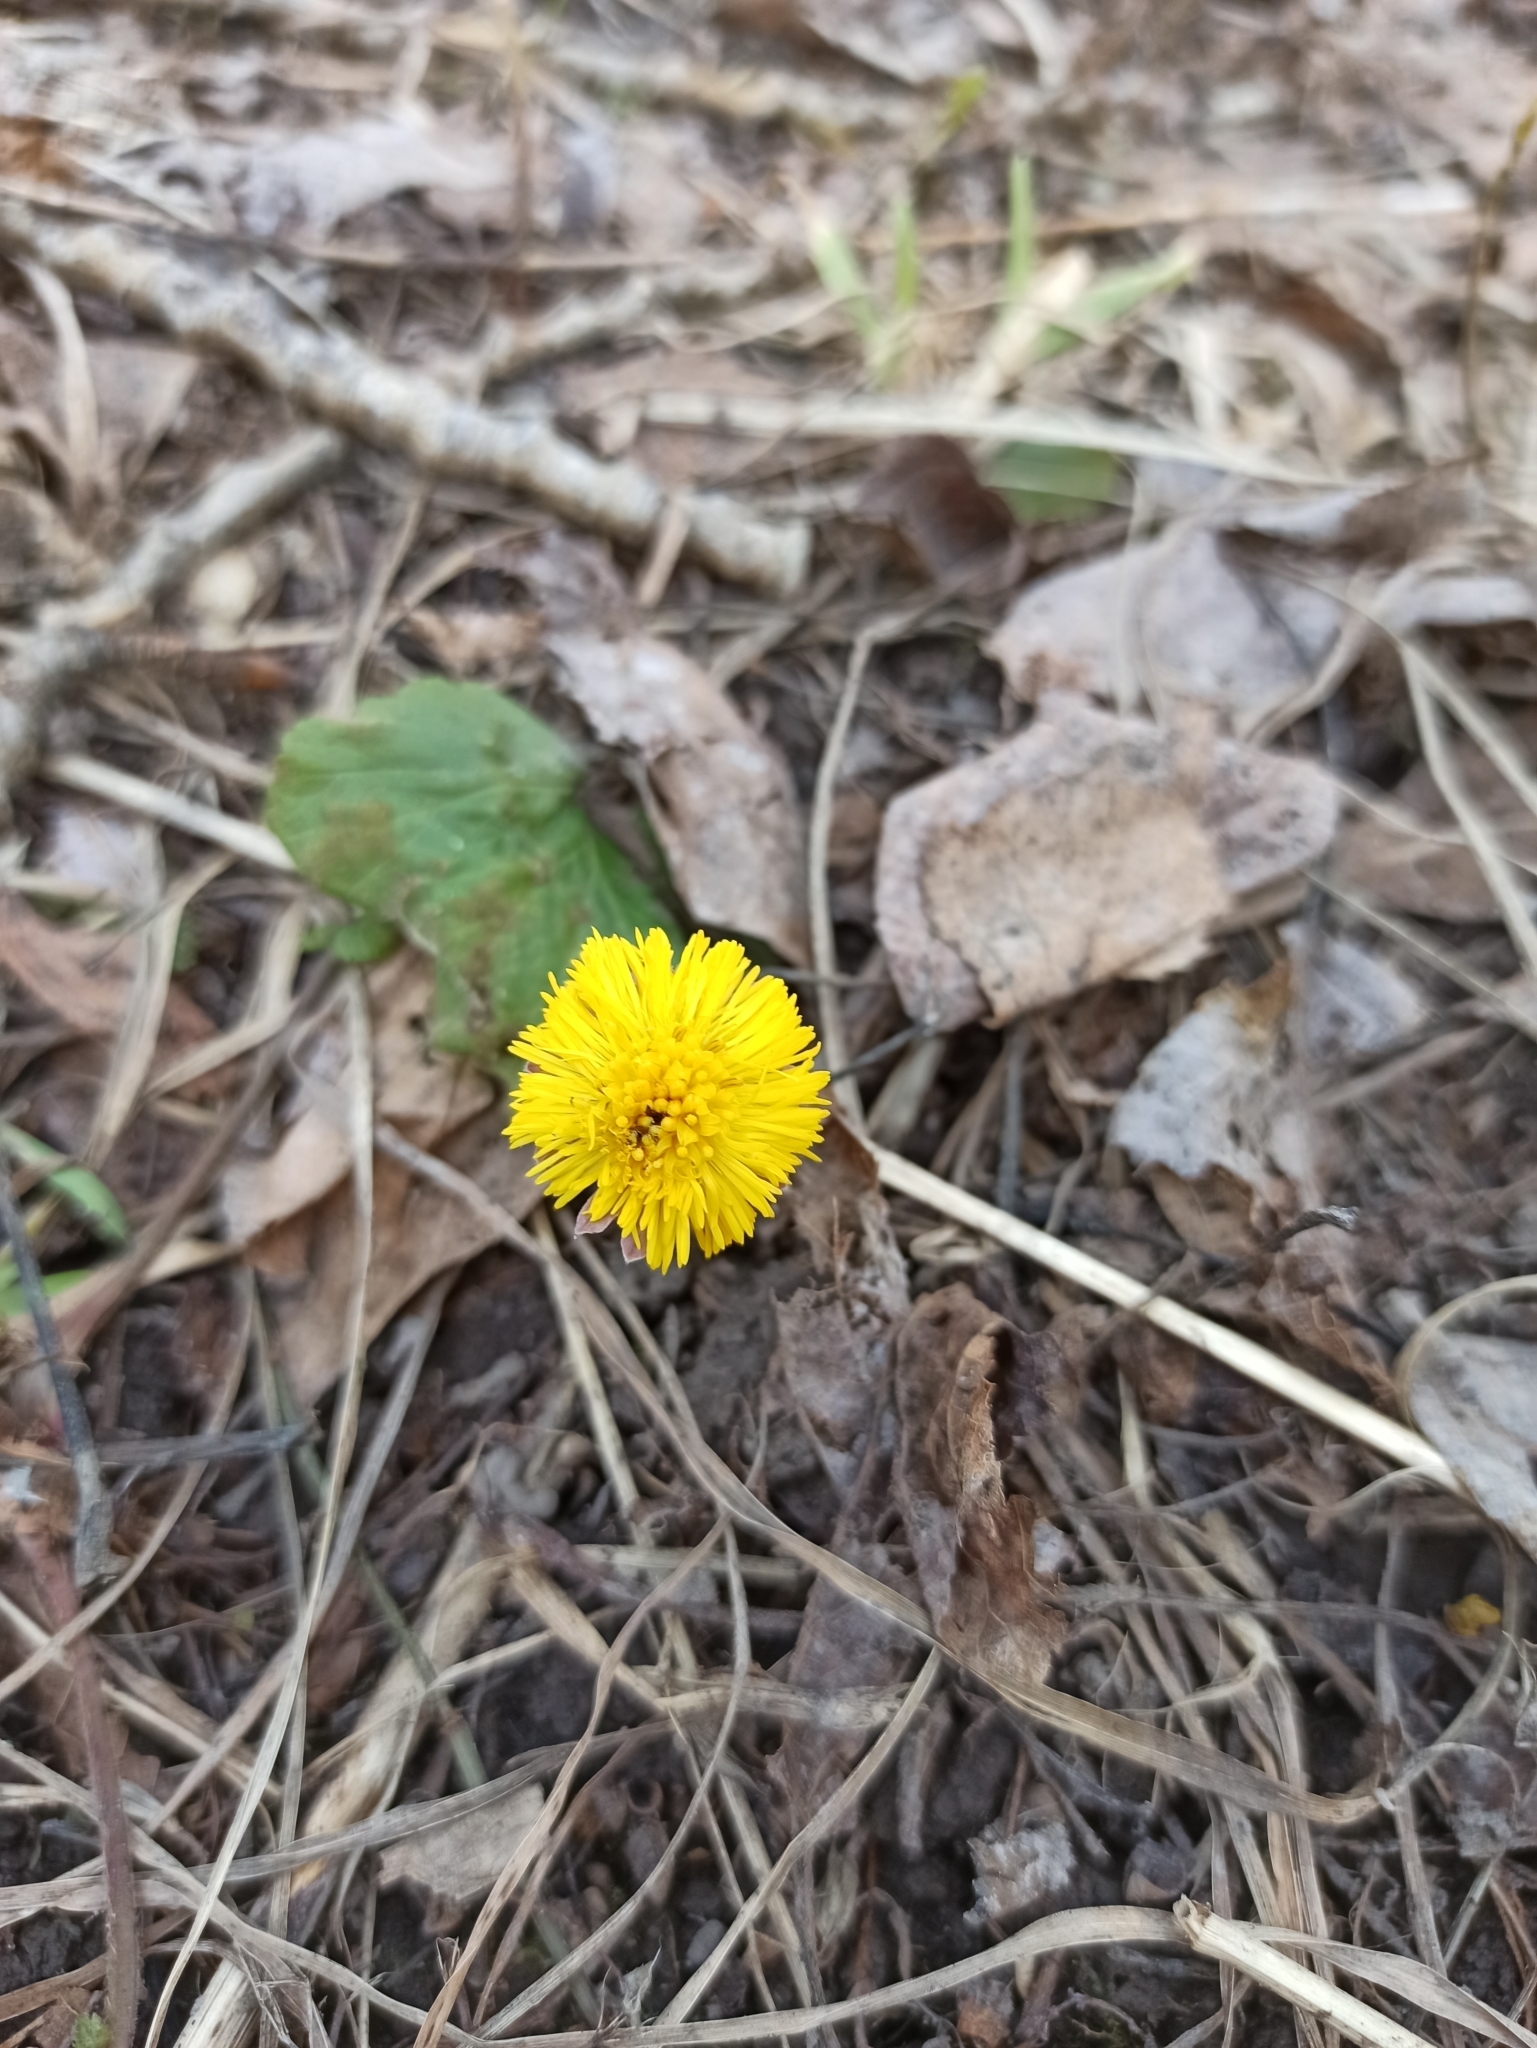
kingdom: Plantae
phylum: Tracheophyta
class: Magnoliopsida
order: Asterales
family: Asteraceae
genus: Tussilago
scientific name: Tussilago farfara
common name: Coltsfoot
